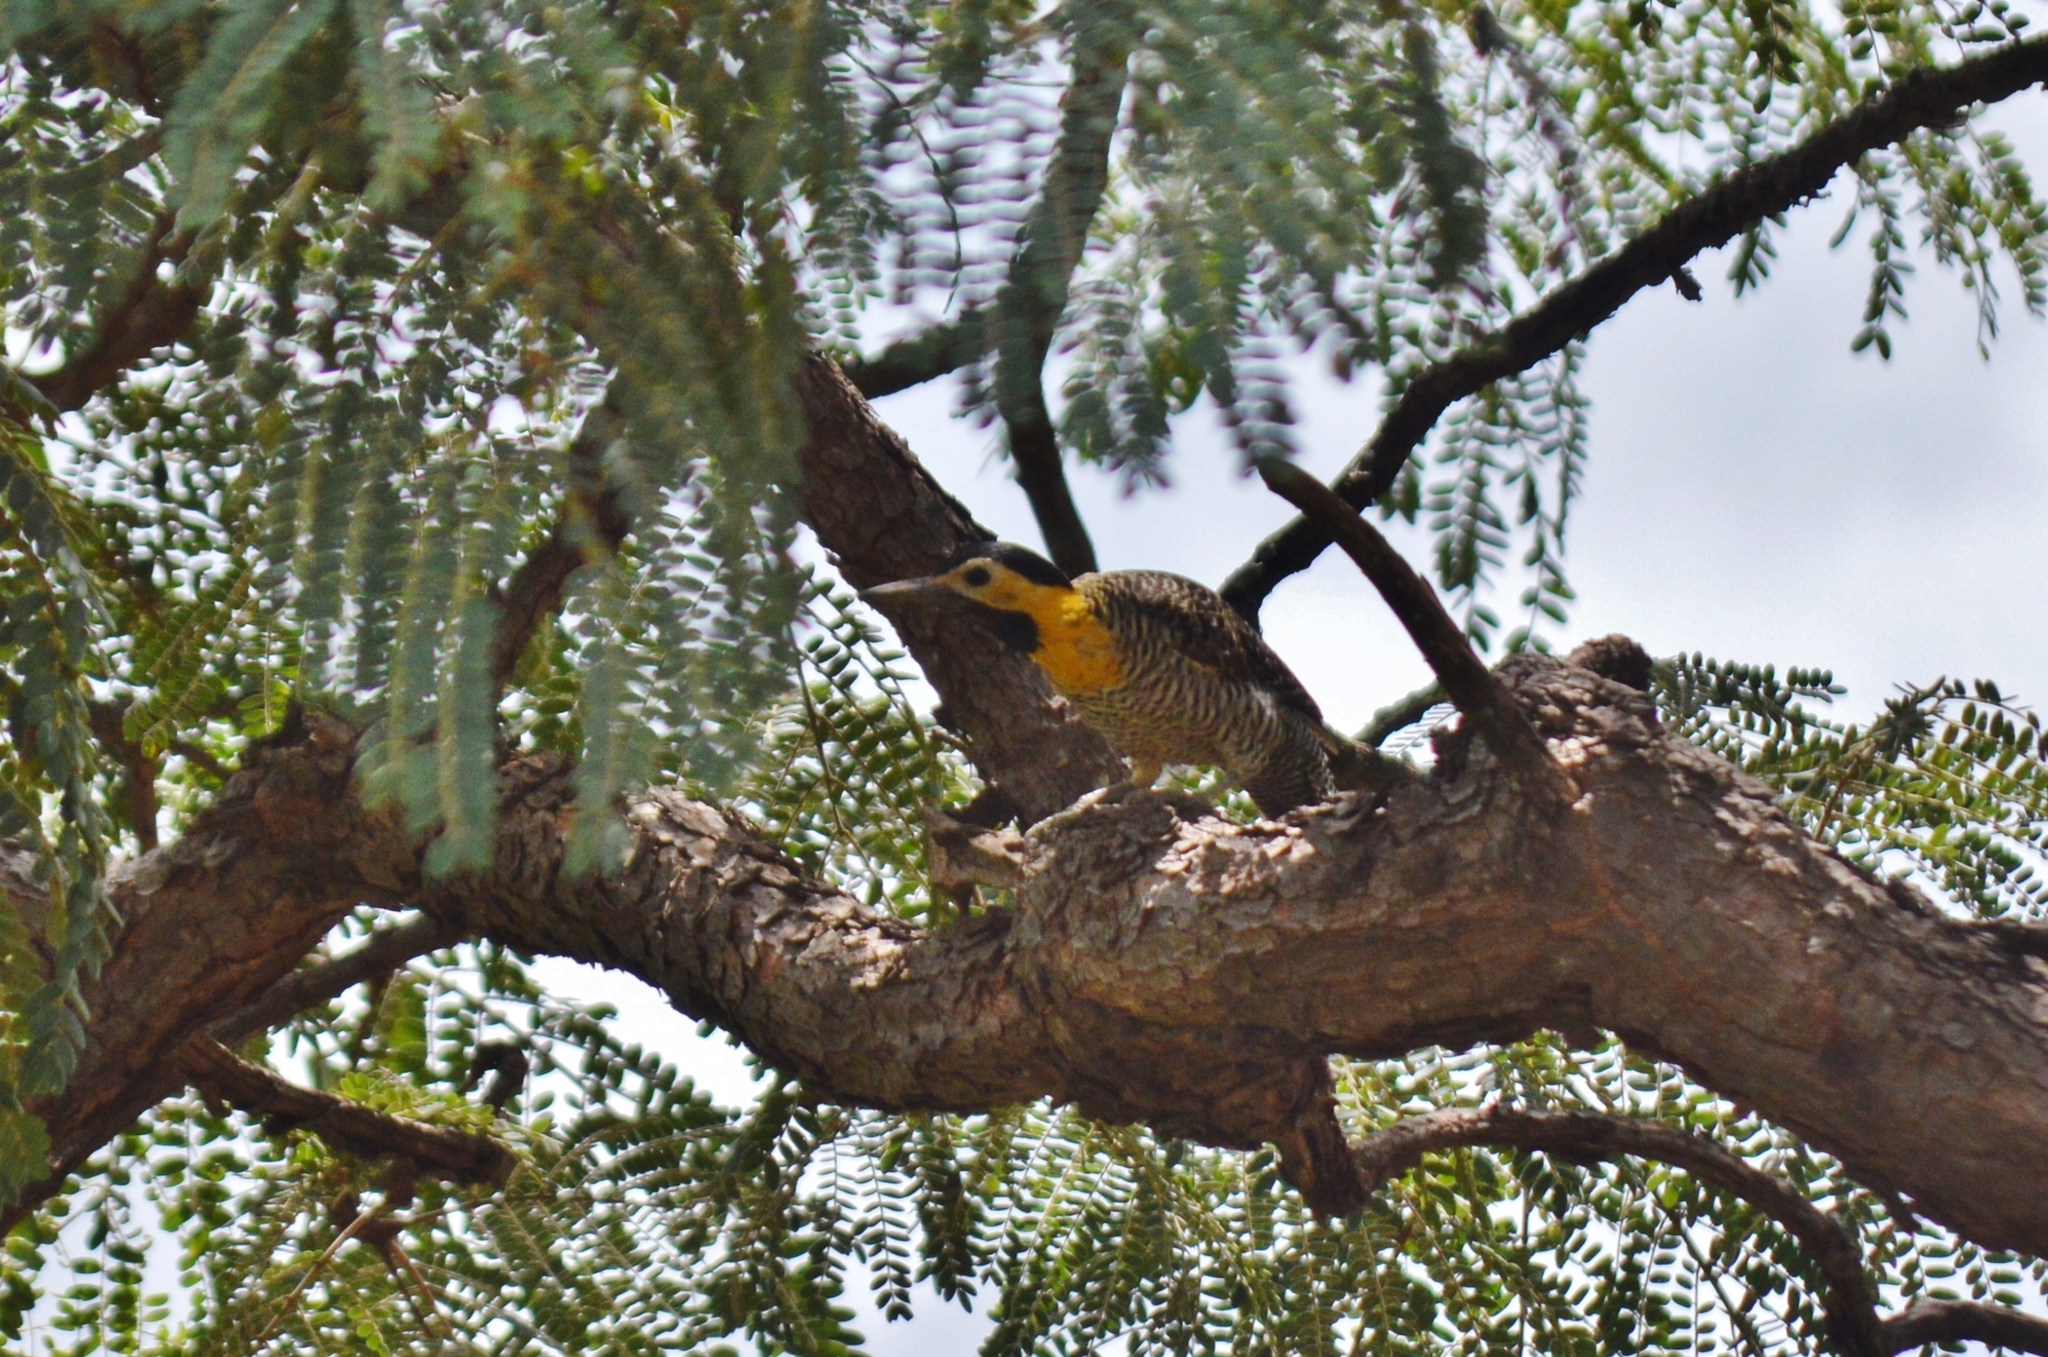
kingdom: Animalia
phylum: Chordata
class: Aves
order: Piciformes
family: Picidae
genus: Colaptes
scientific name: Colaptes campestris
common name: Campo flicker
